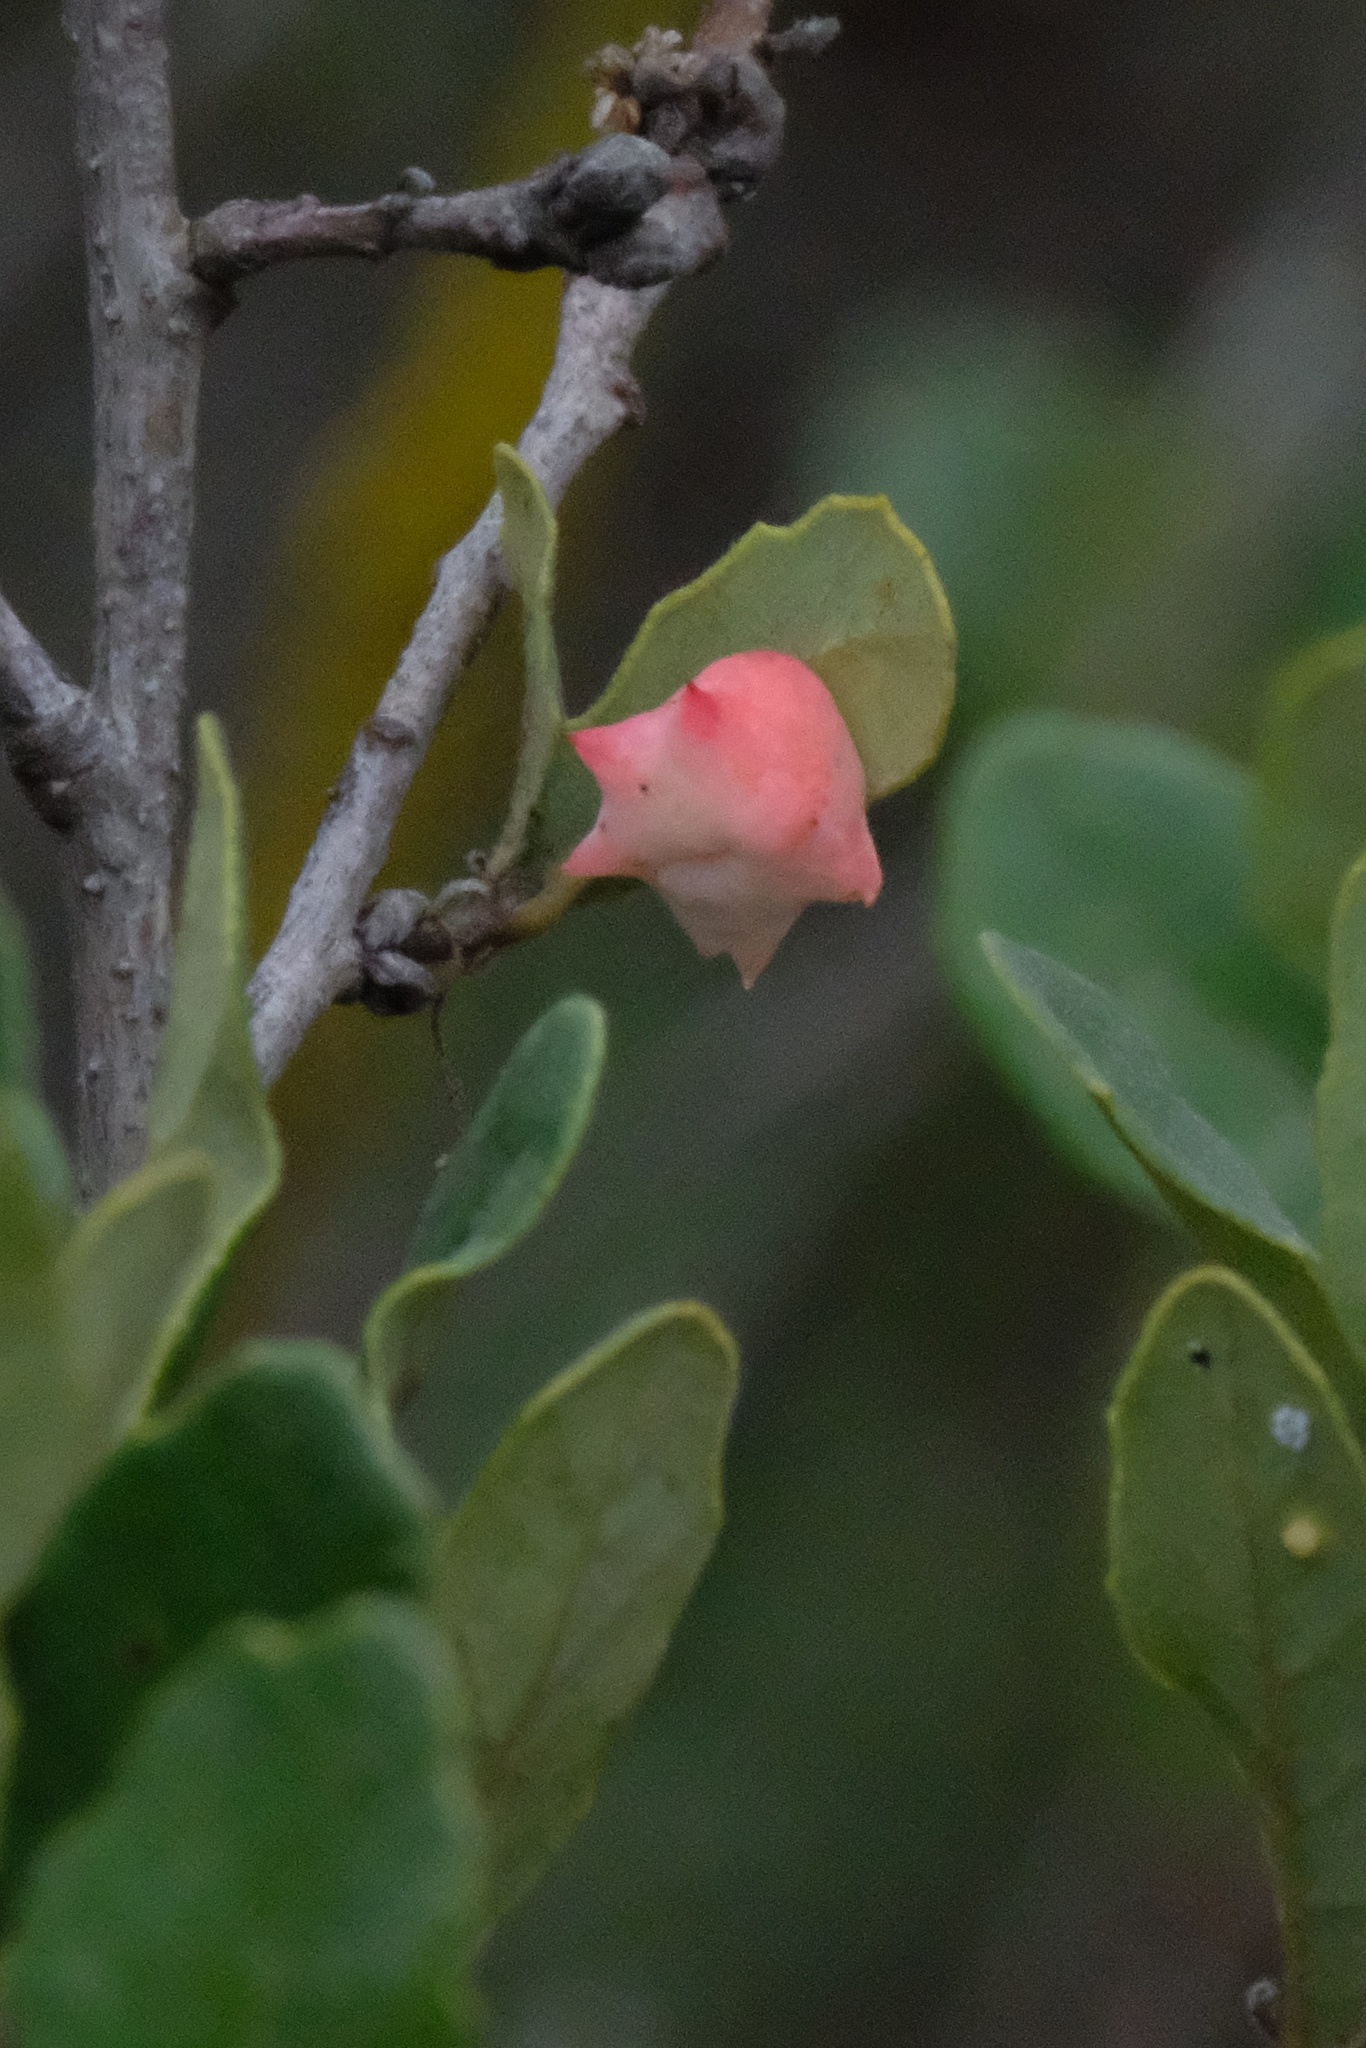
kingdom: Animalia
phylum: Arthropoda
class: Insecta
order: Hymenoptera
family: Cynipidae
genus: Cynips
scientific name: Cynips douglasi
